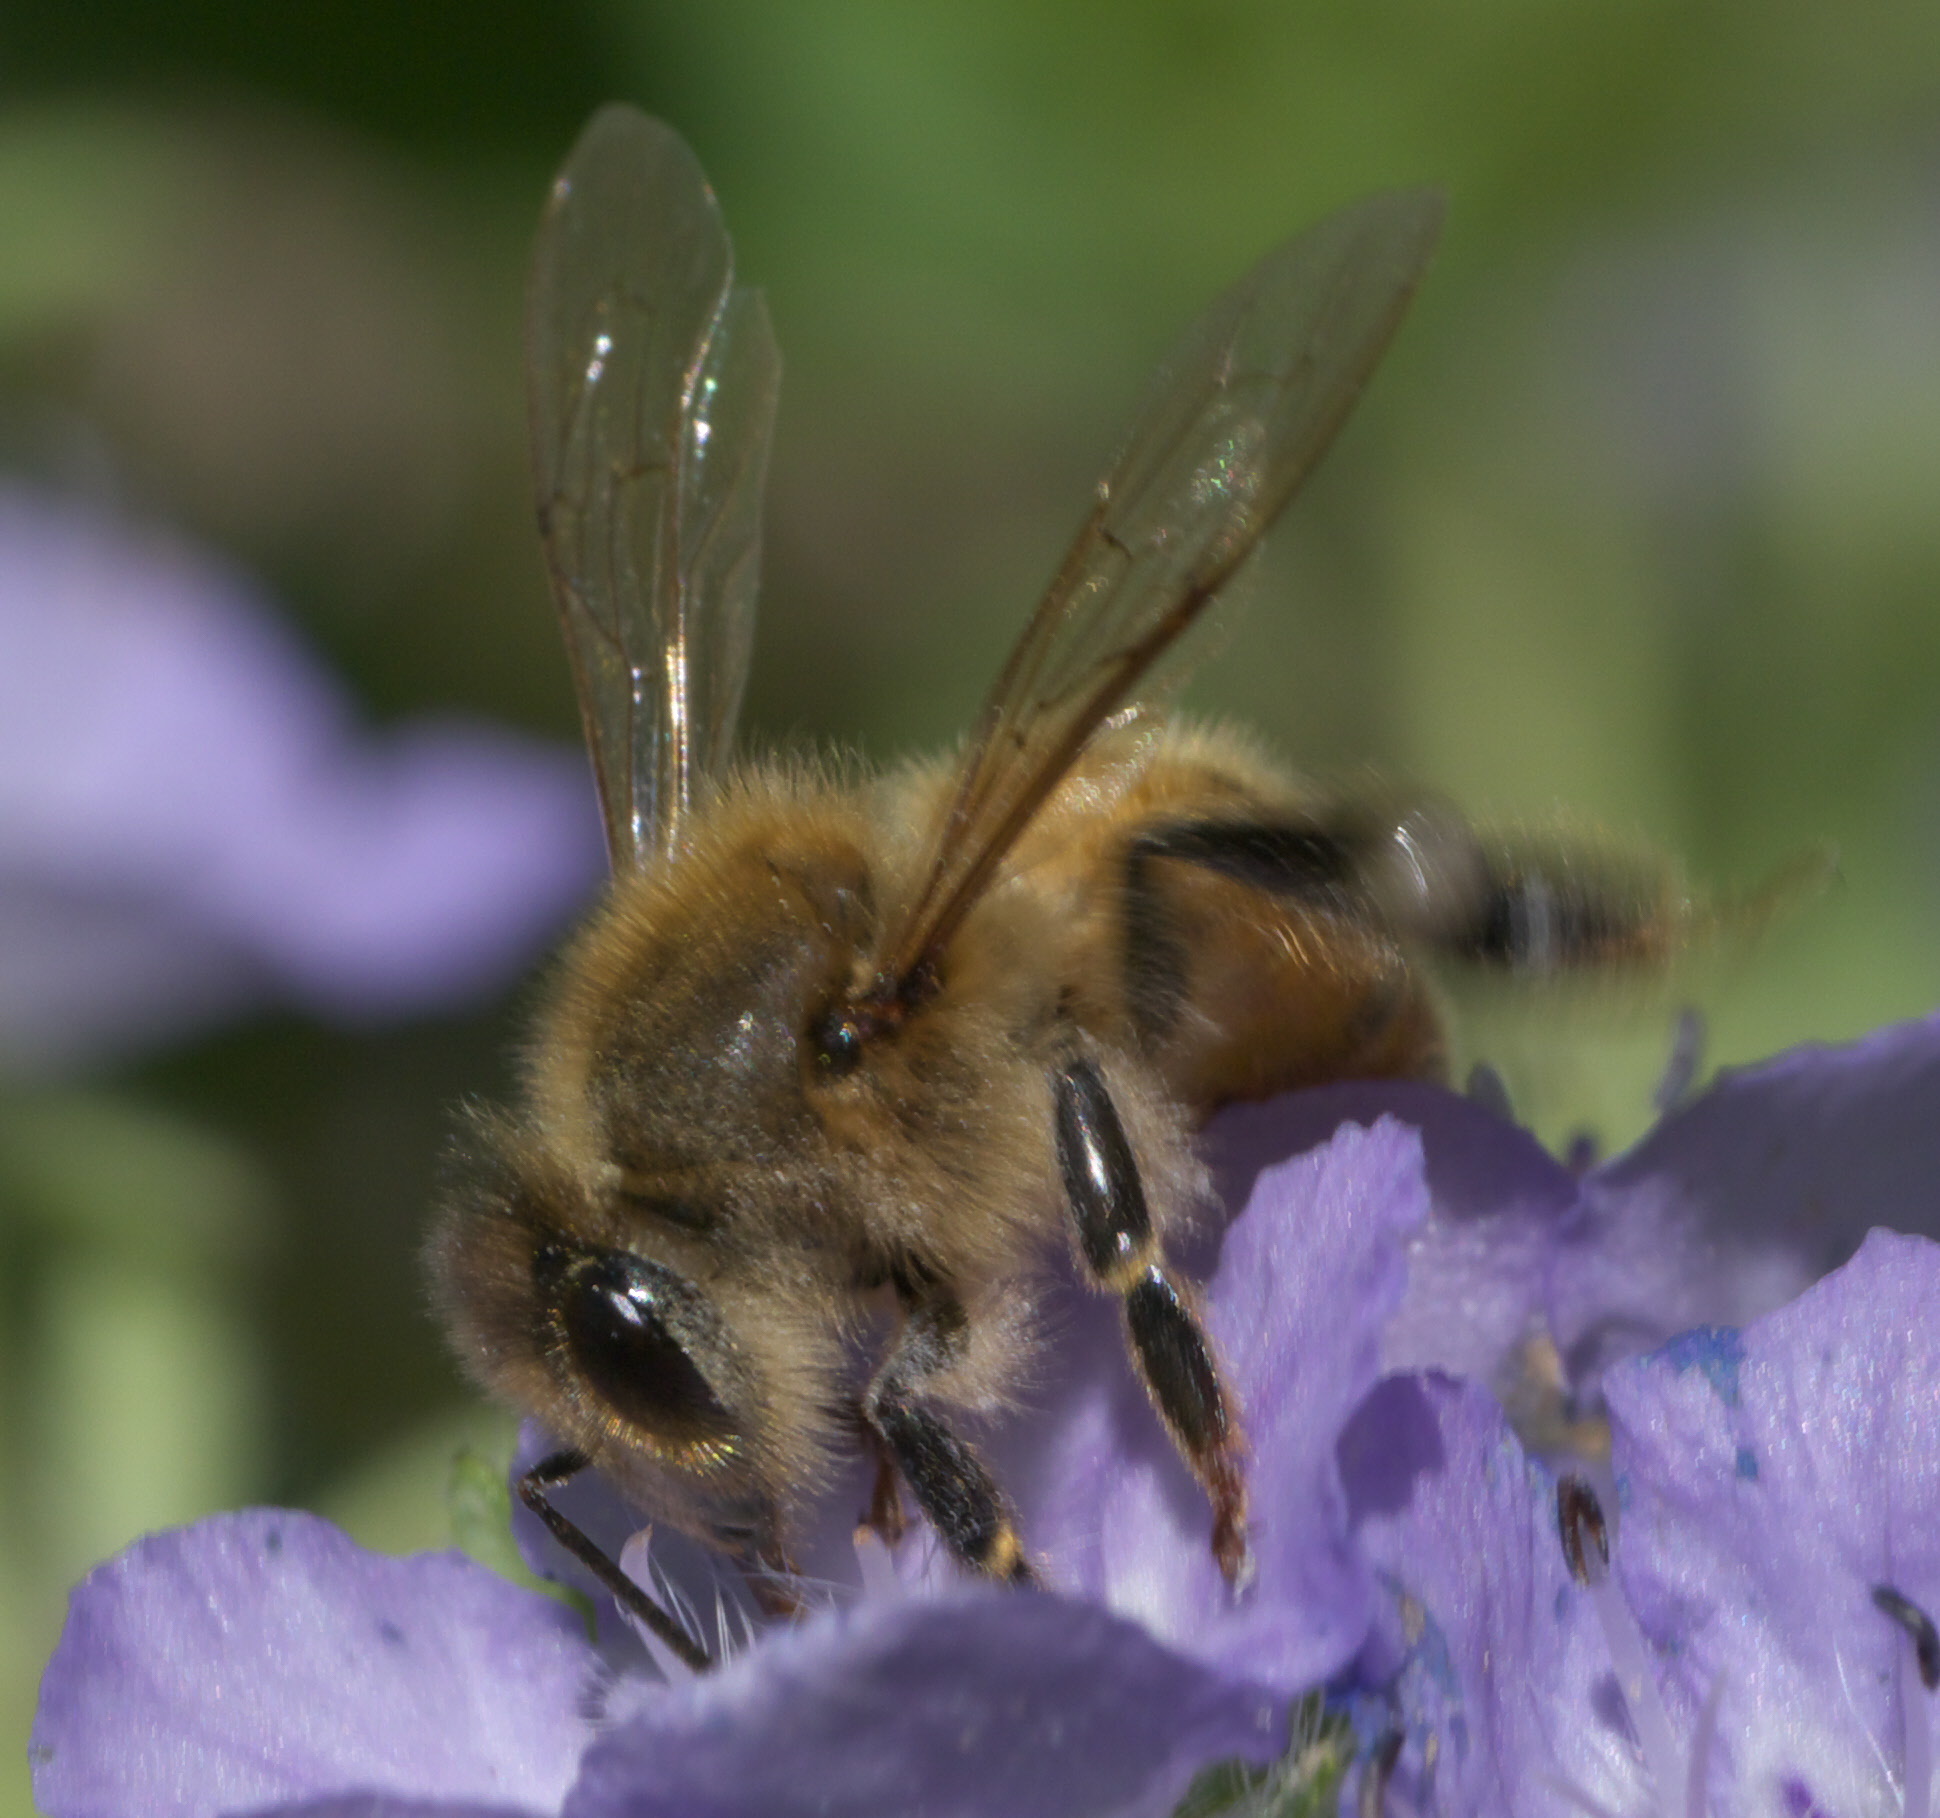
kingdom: Animalia
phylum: Arthropoda
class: Insecta
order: Hymenoptera
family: Apidae
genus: Apis
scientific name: Apis mellifera
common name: Honey bee
